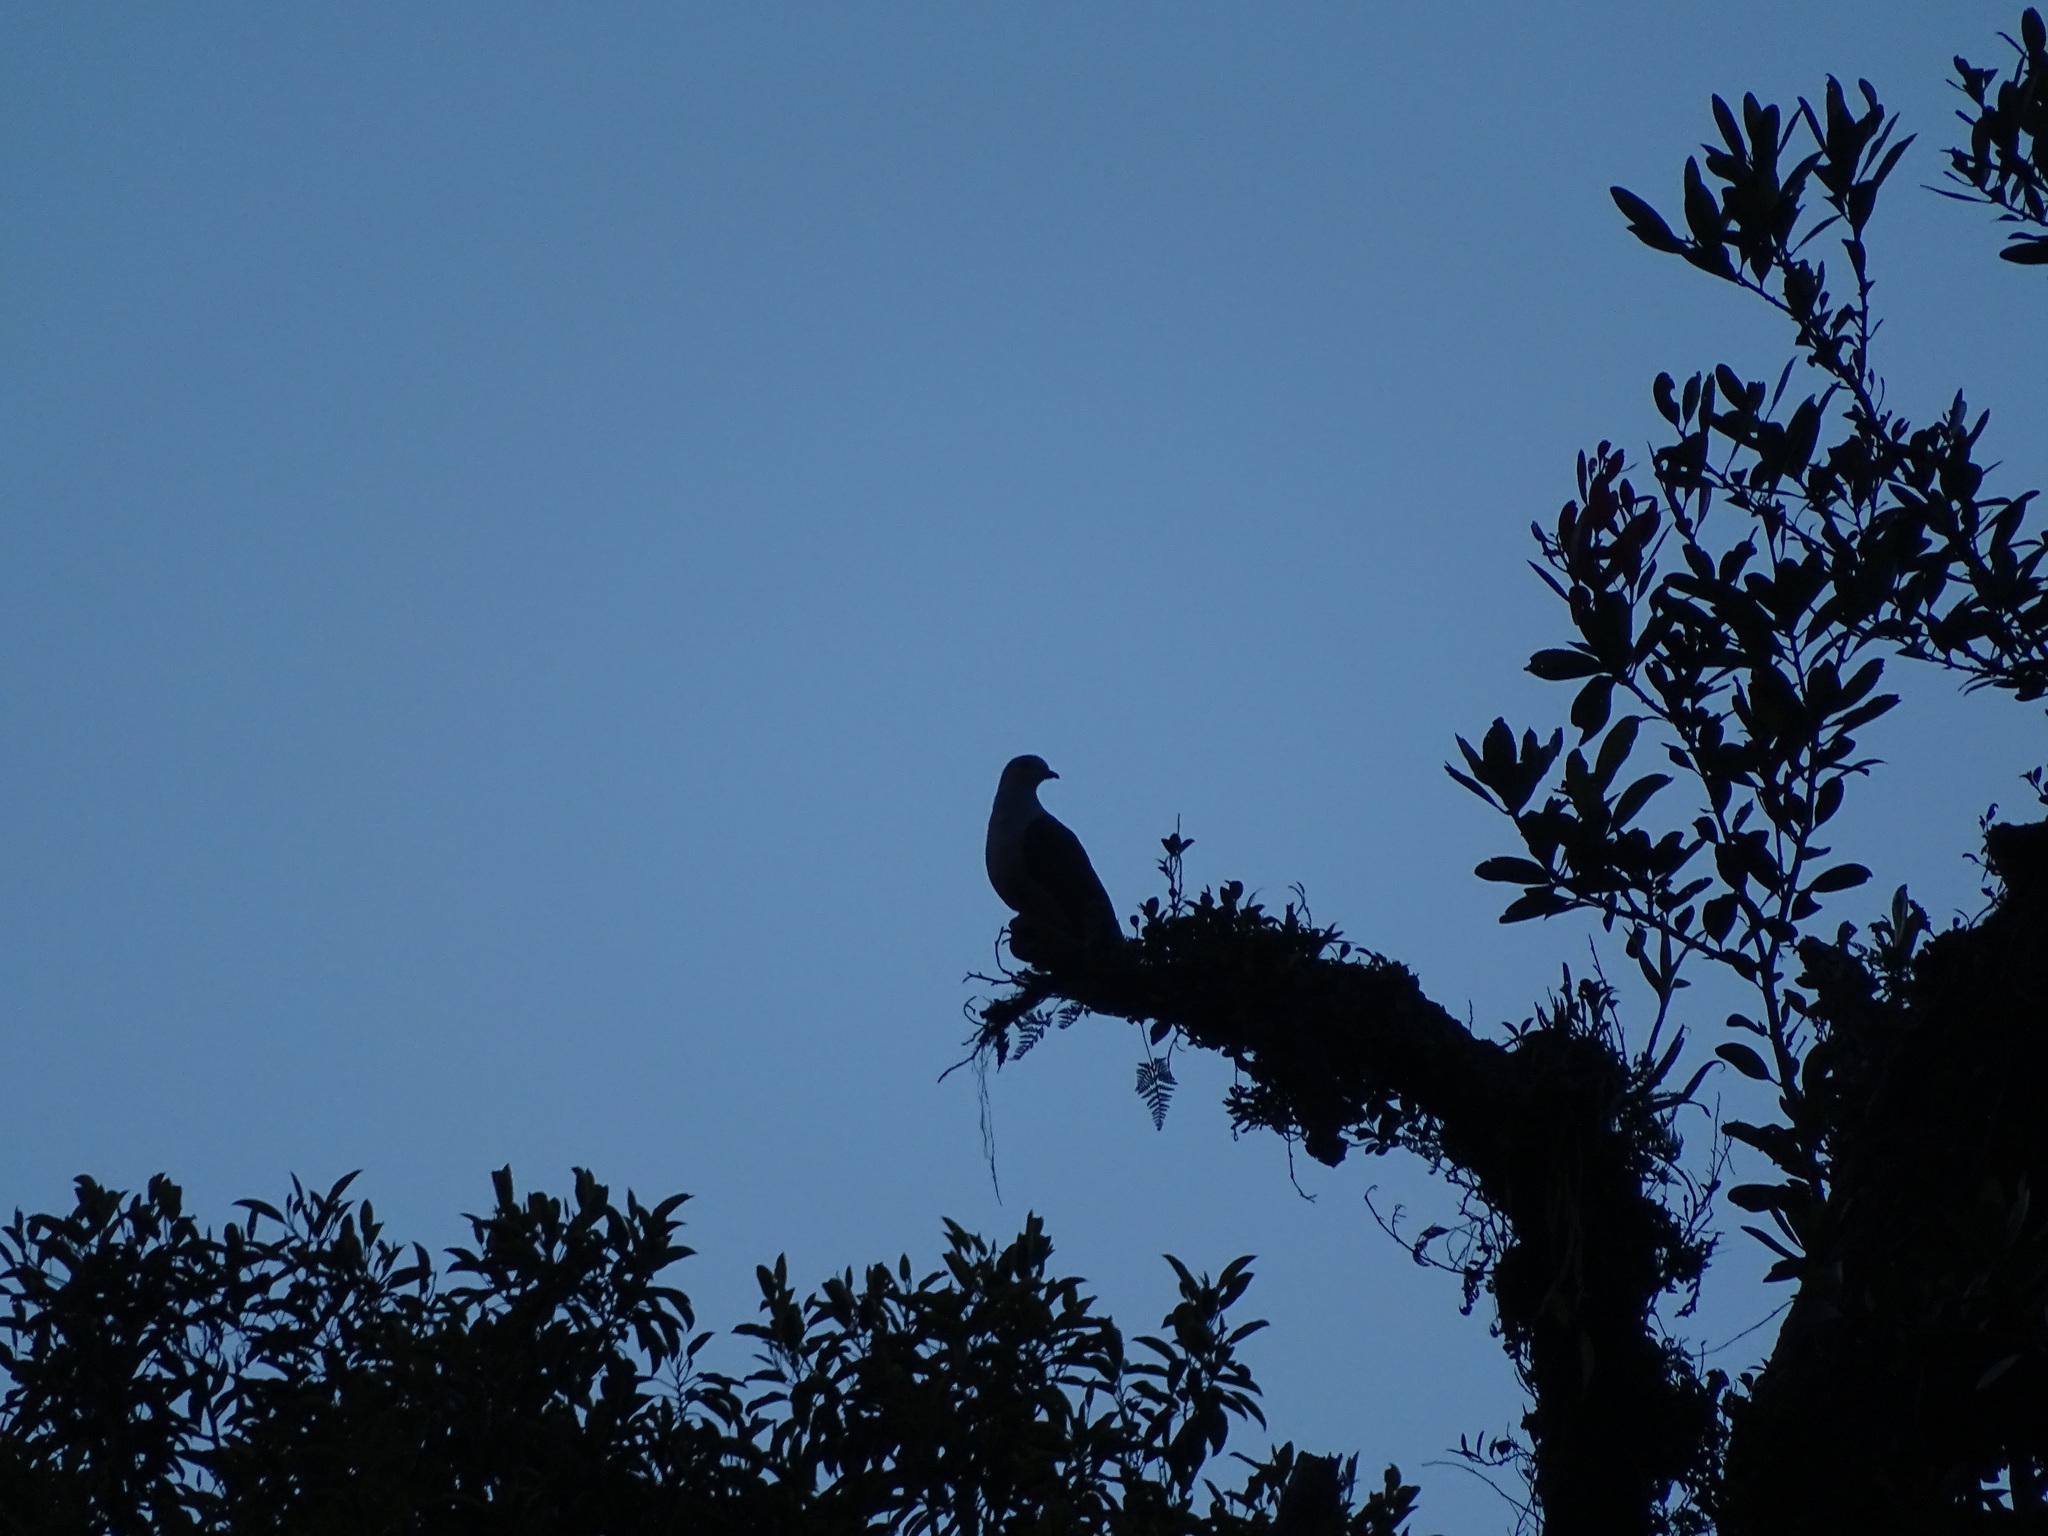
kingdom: Animalia
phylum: Chordata
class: Aves
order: Columbiformes
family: Columbidae
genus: Ducula
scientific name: Ducula lacernulata
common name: Dark-backed imperial pigeon
